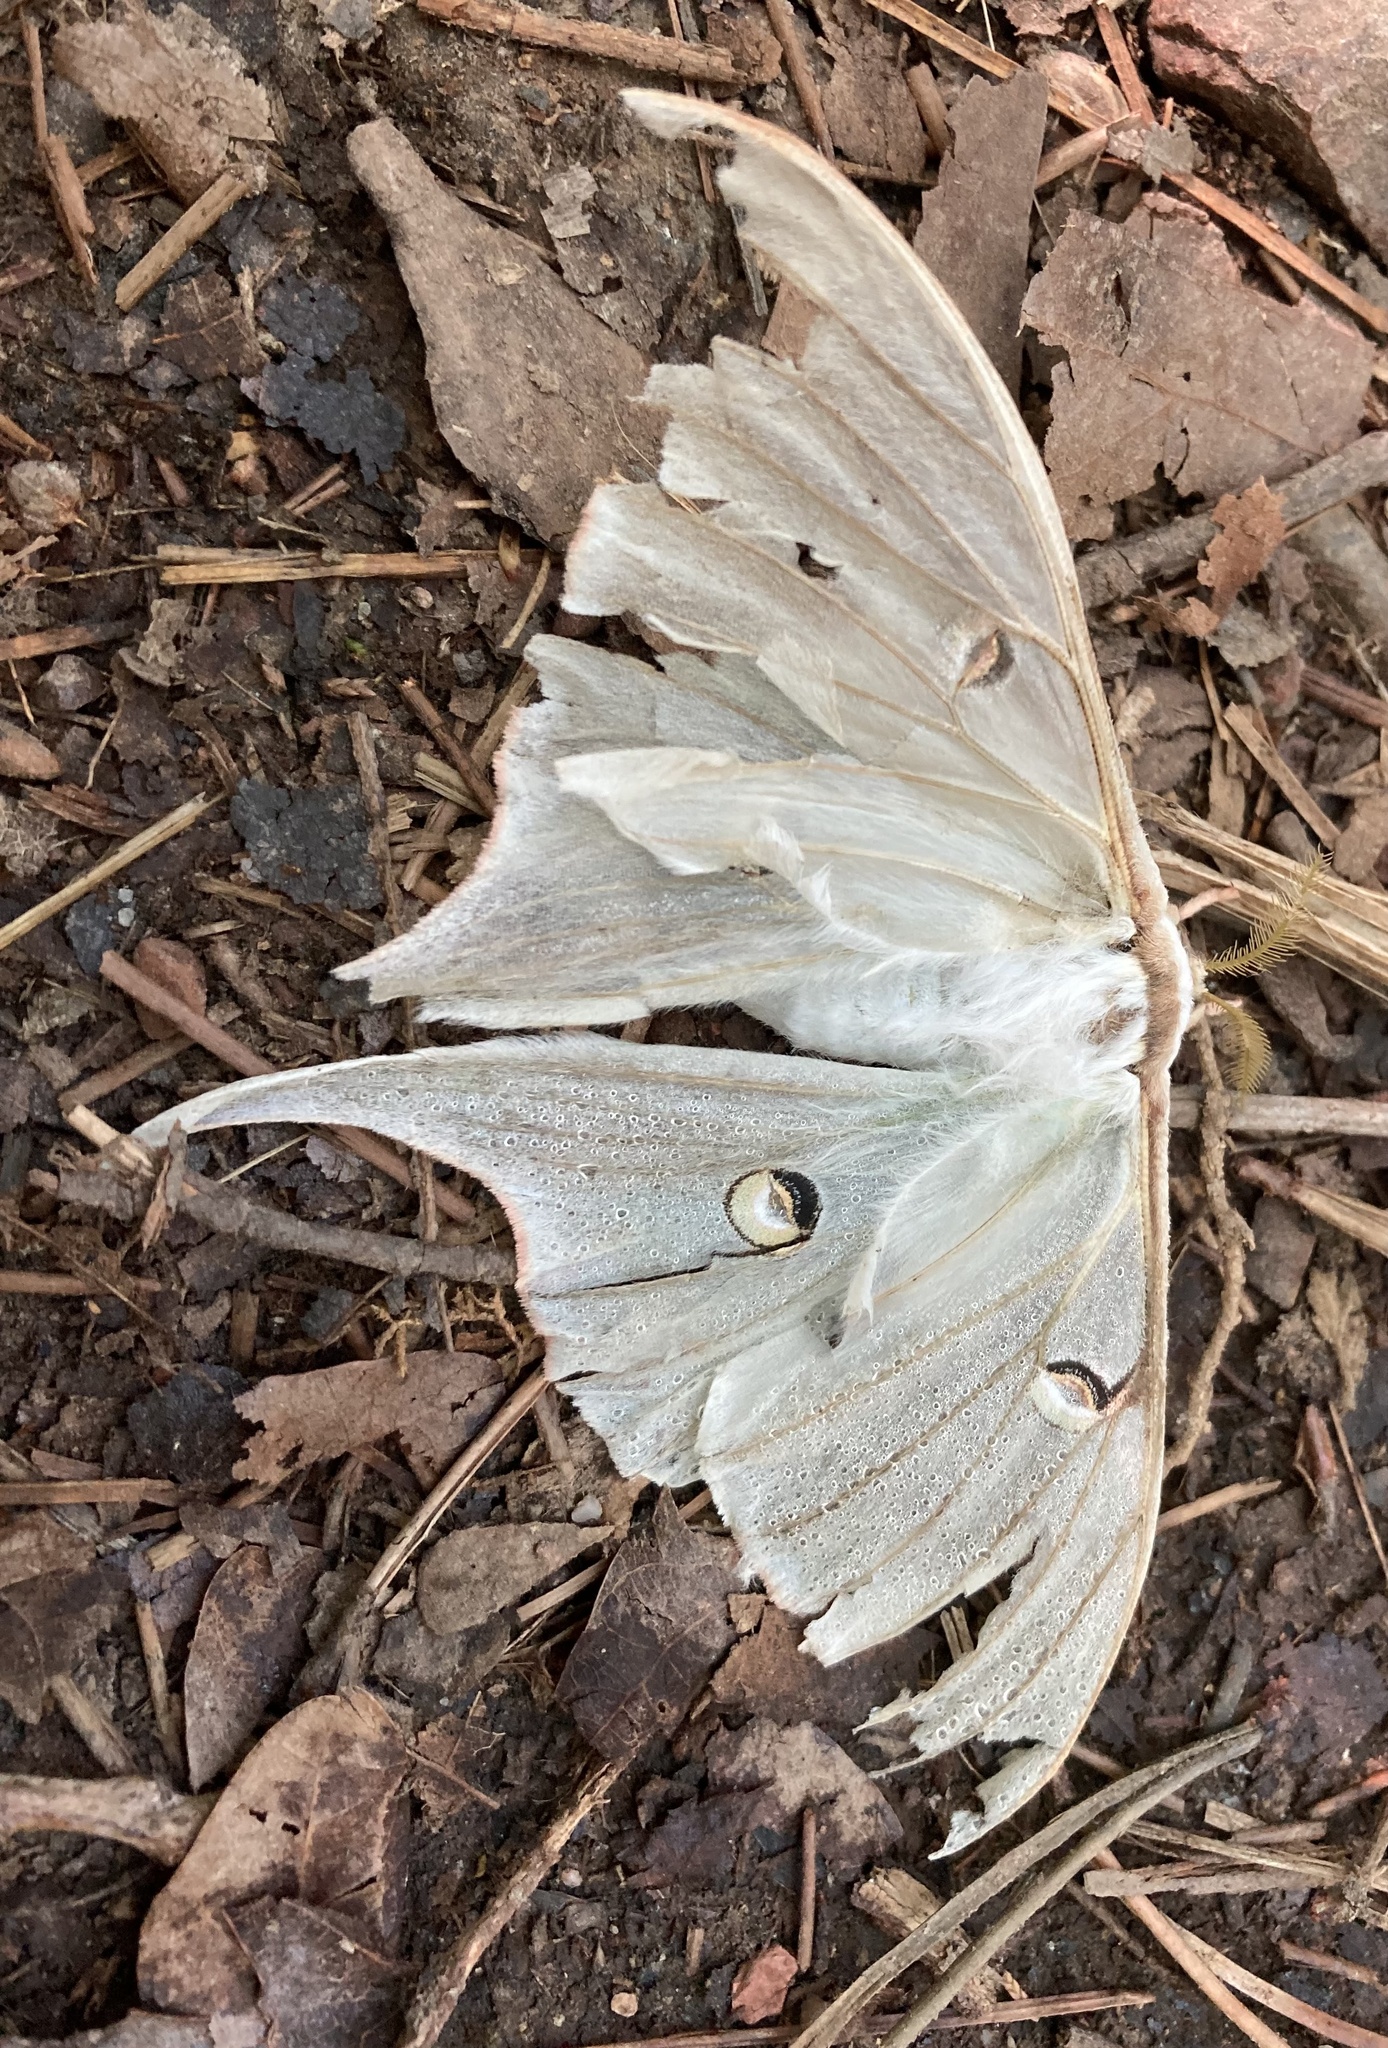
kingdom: Animalia
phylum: Arthropoda
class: Insecta
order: Lepidoptera
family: Saturniidae
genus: Actias
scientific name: Actias luna
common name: Luna moth
